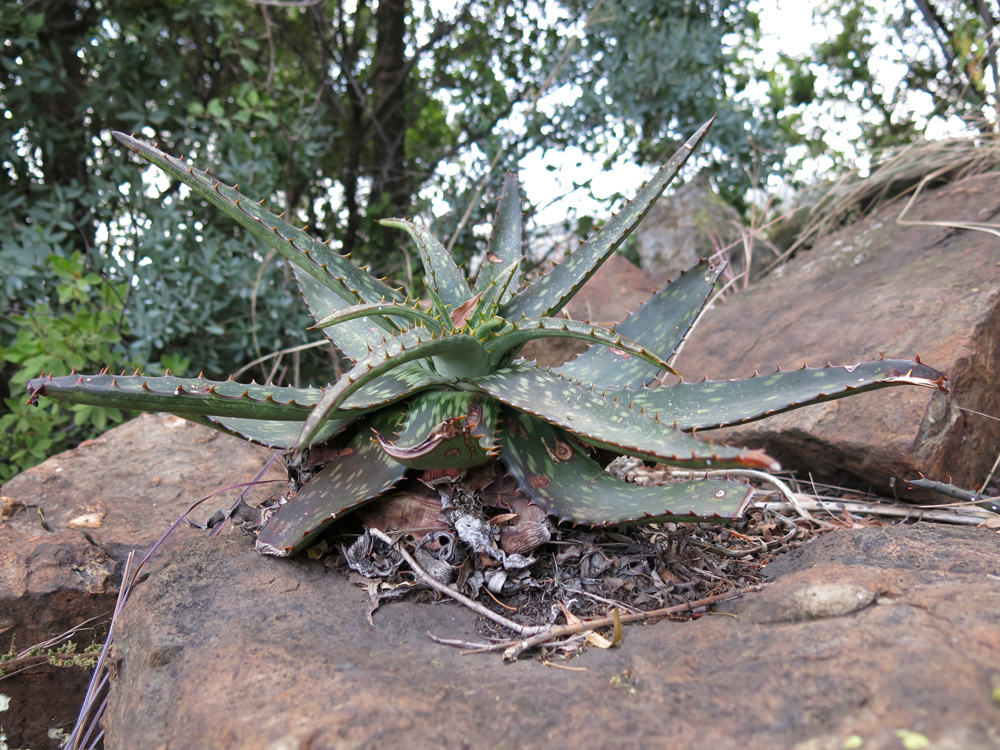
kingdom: Plantae
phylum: Tracheophyta
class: Liliopsida
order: Asparagales
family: Asphodelaceae
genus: Aloe
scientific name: Aloe davyana
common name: Spotted aloe
